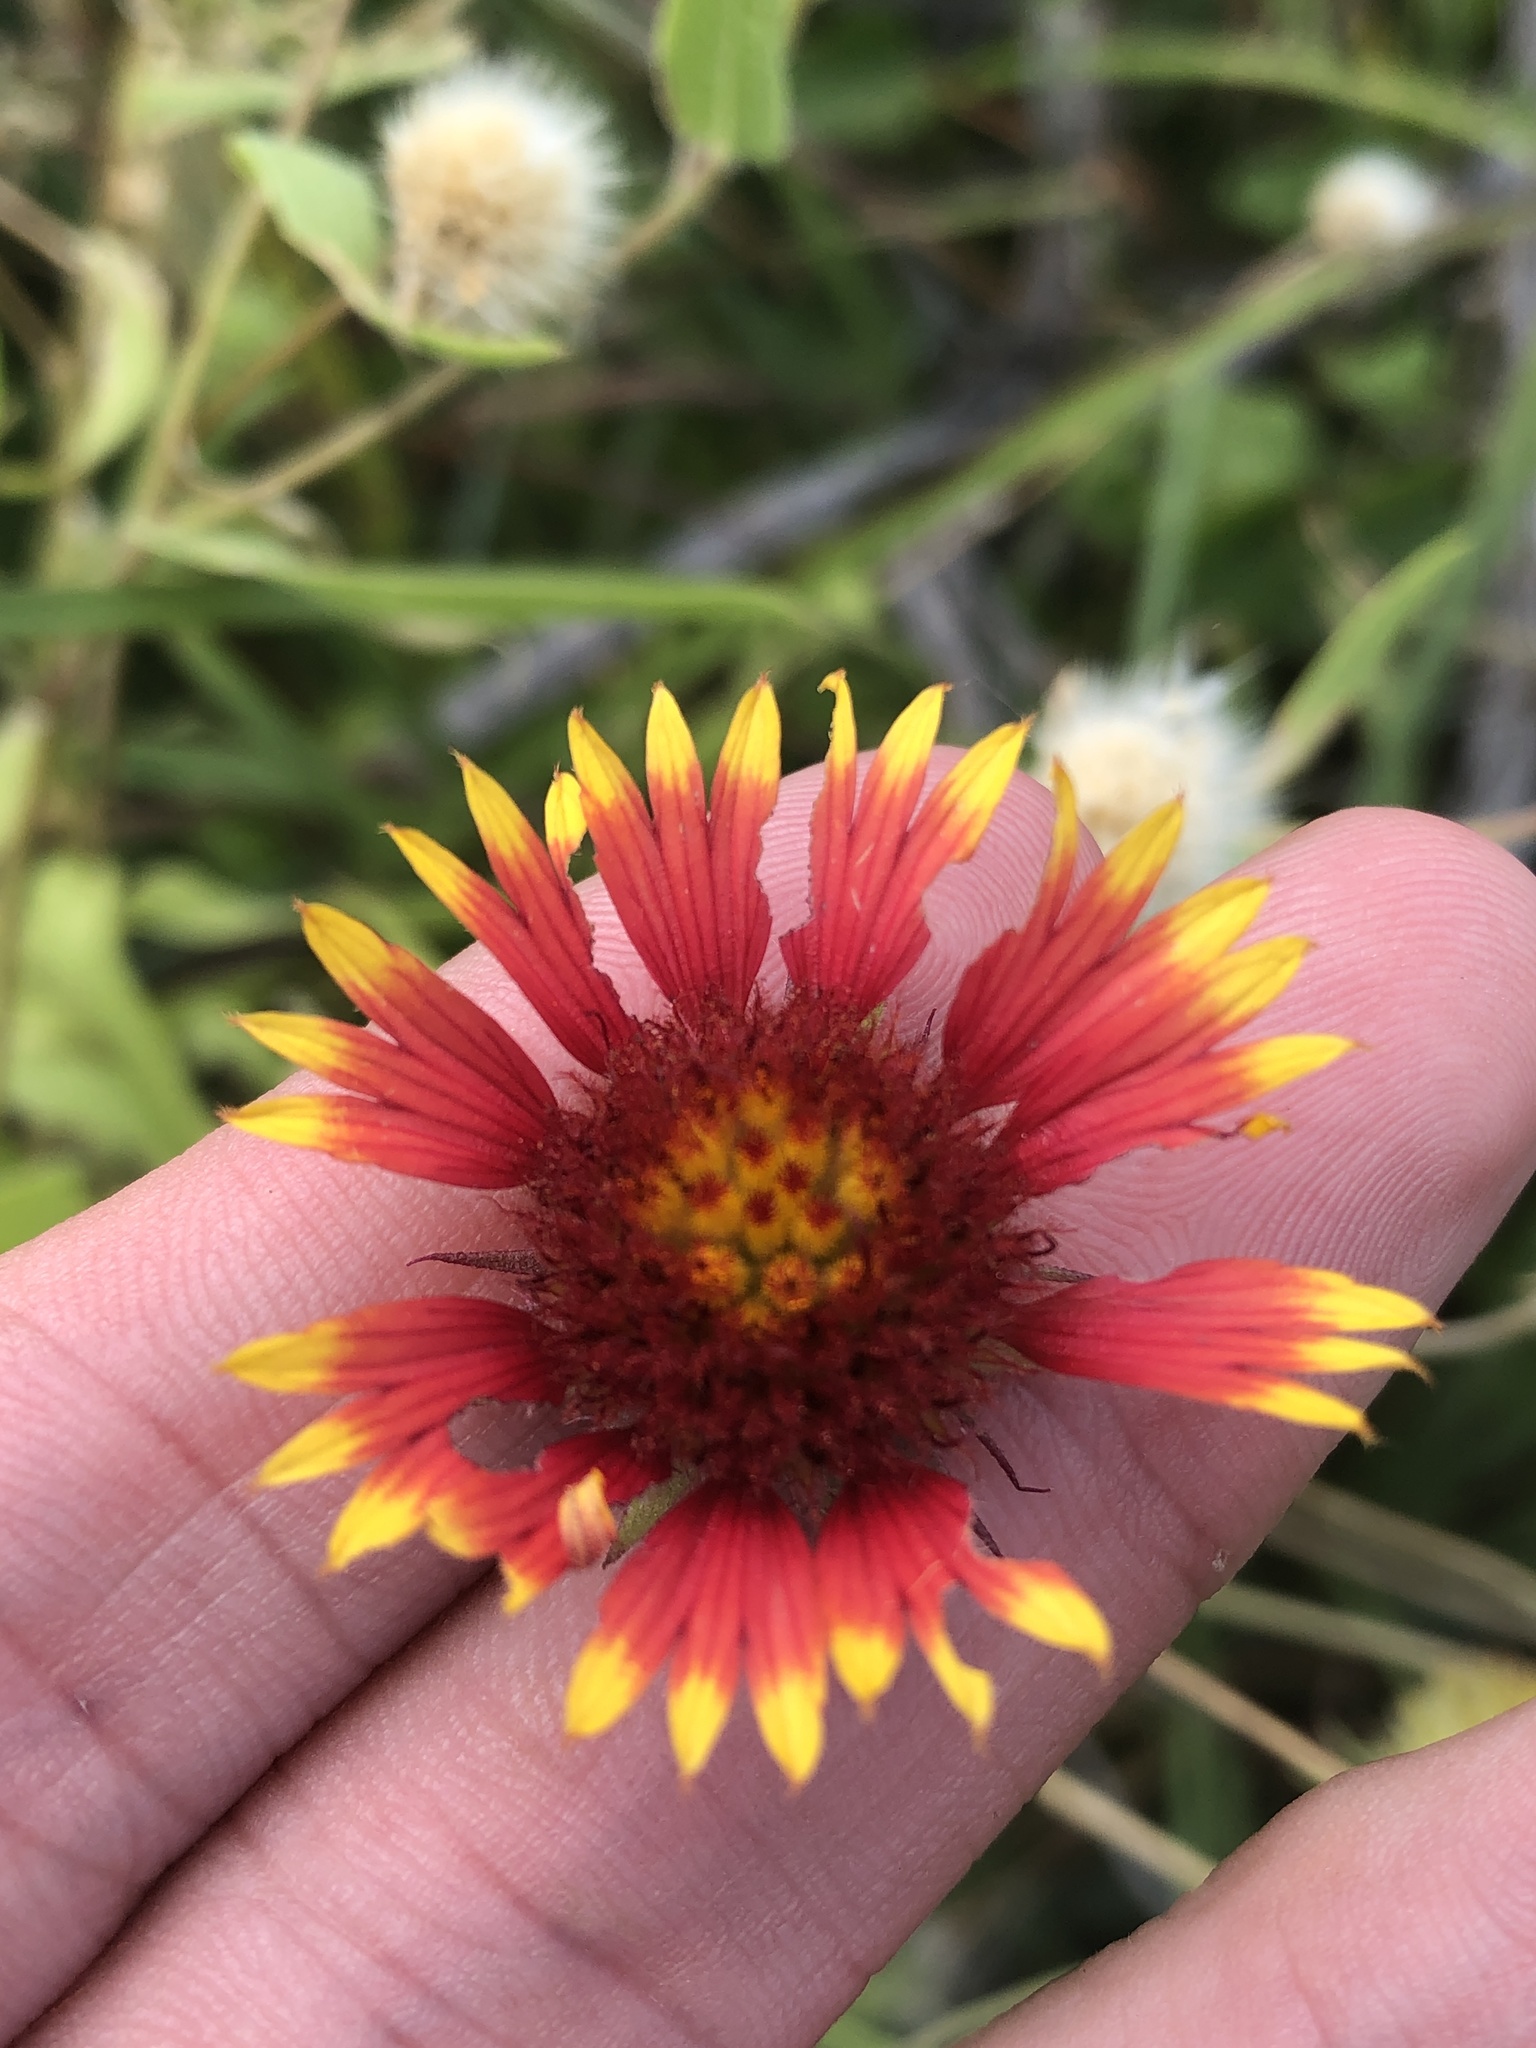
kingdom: Plantae
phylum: Tracheophyta
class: Magnoliopsida
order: Asterales
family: Asteraceae
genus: Gaillardia
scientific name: Gaillardia pulchella
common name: Firewheel
